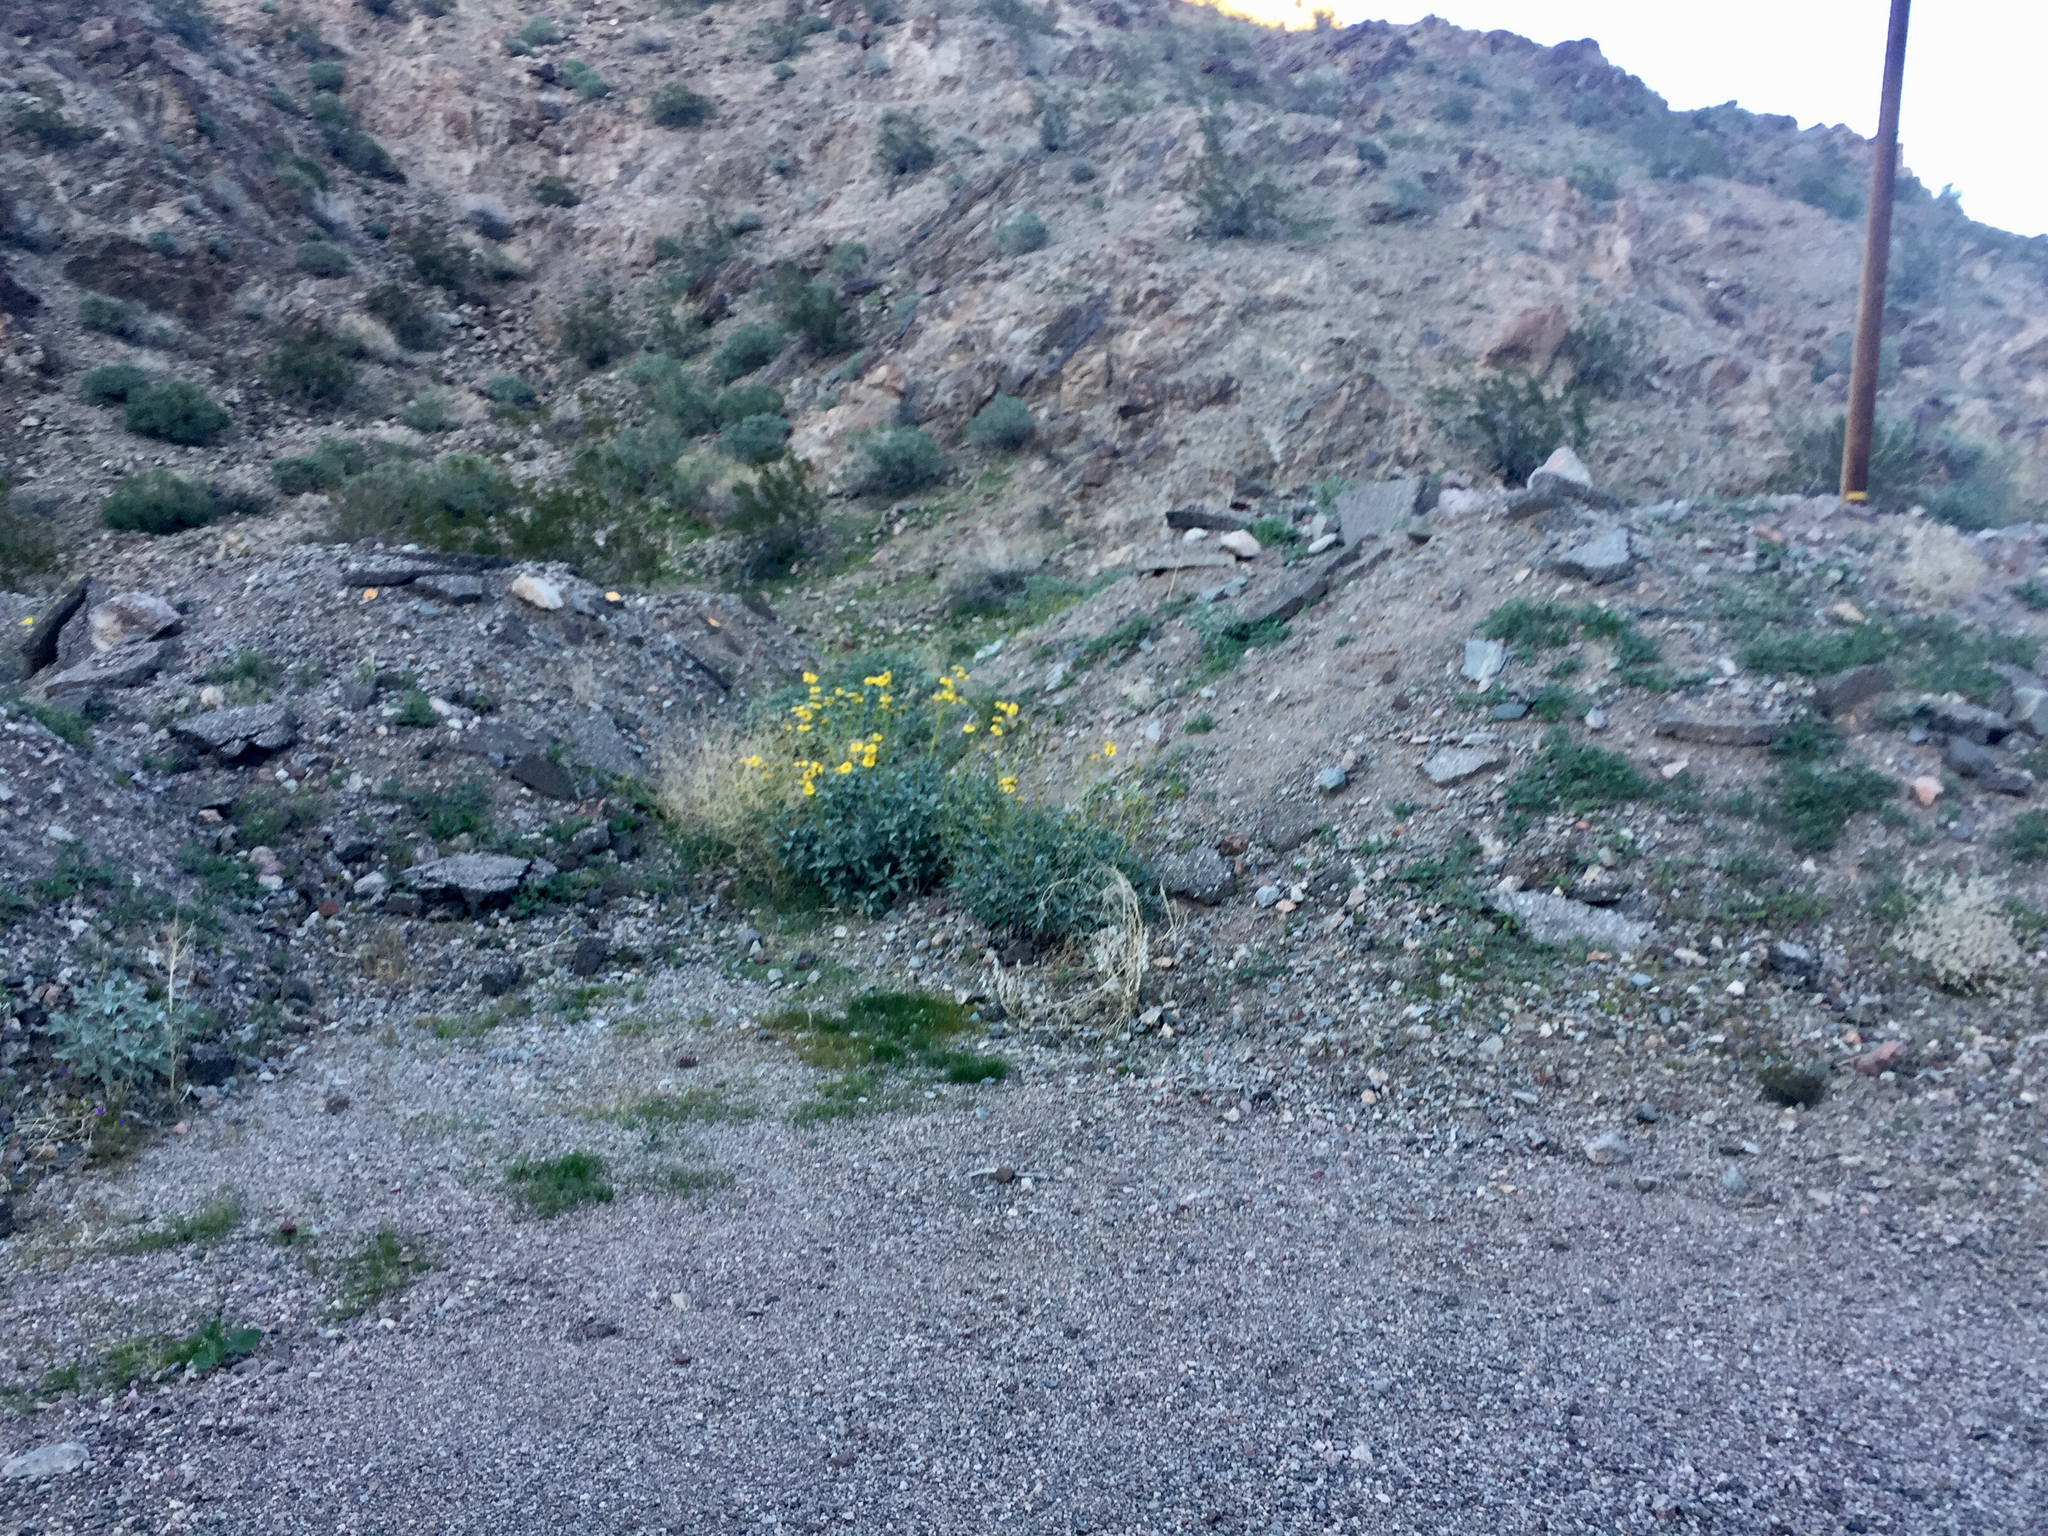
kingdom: Plantae
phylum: Tracheophyta
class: Magnoliopsida
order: Asterales
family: Asteraceae
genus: Encelia
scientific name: Encelia farinosa
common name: Brittlebush
